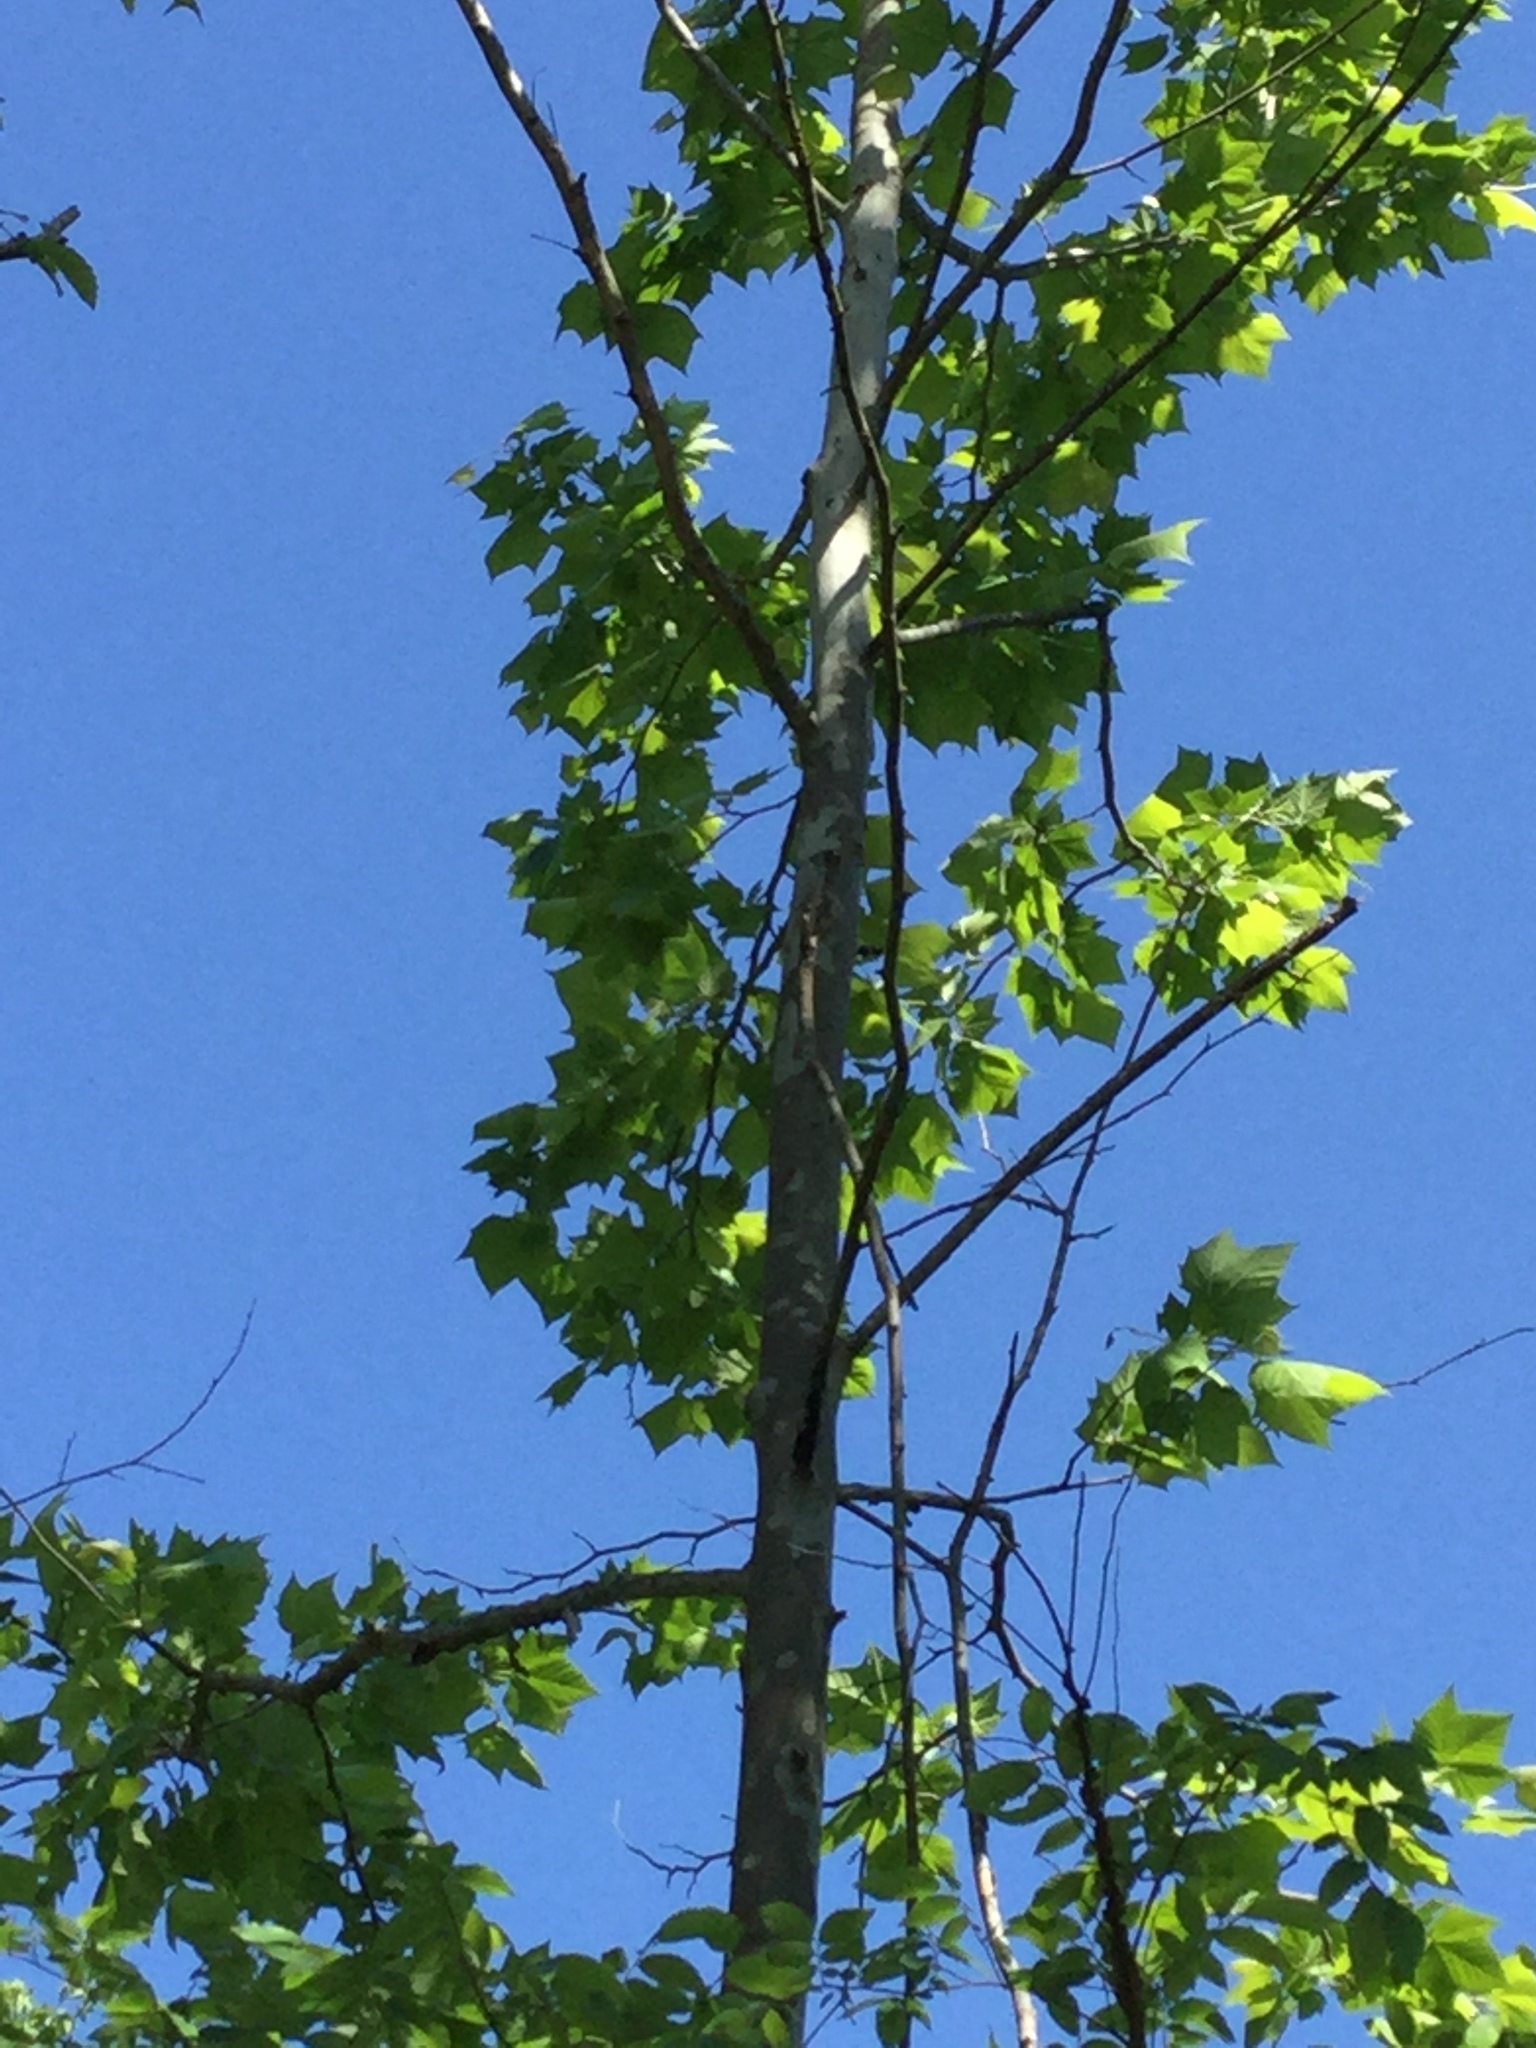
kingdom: Plantae
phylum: Tracheophyta
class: Magnoliopsida
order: Proteales
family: Platanaceae
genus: Platanus
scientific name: Platanus occidentalis
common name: American sycamore
